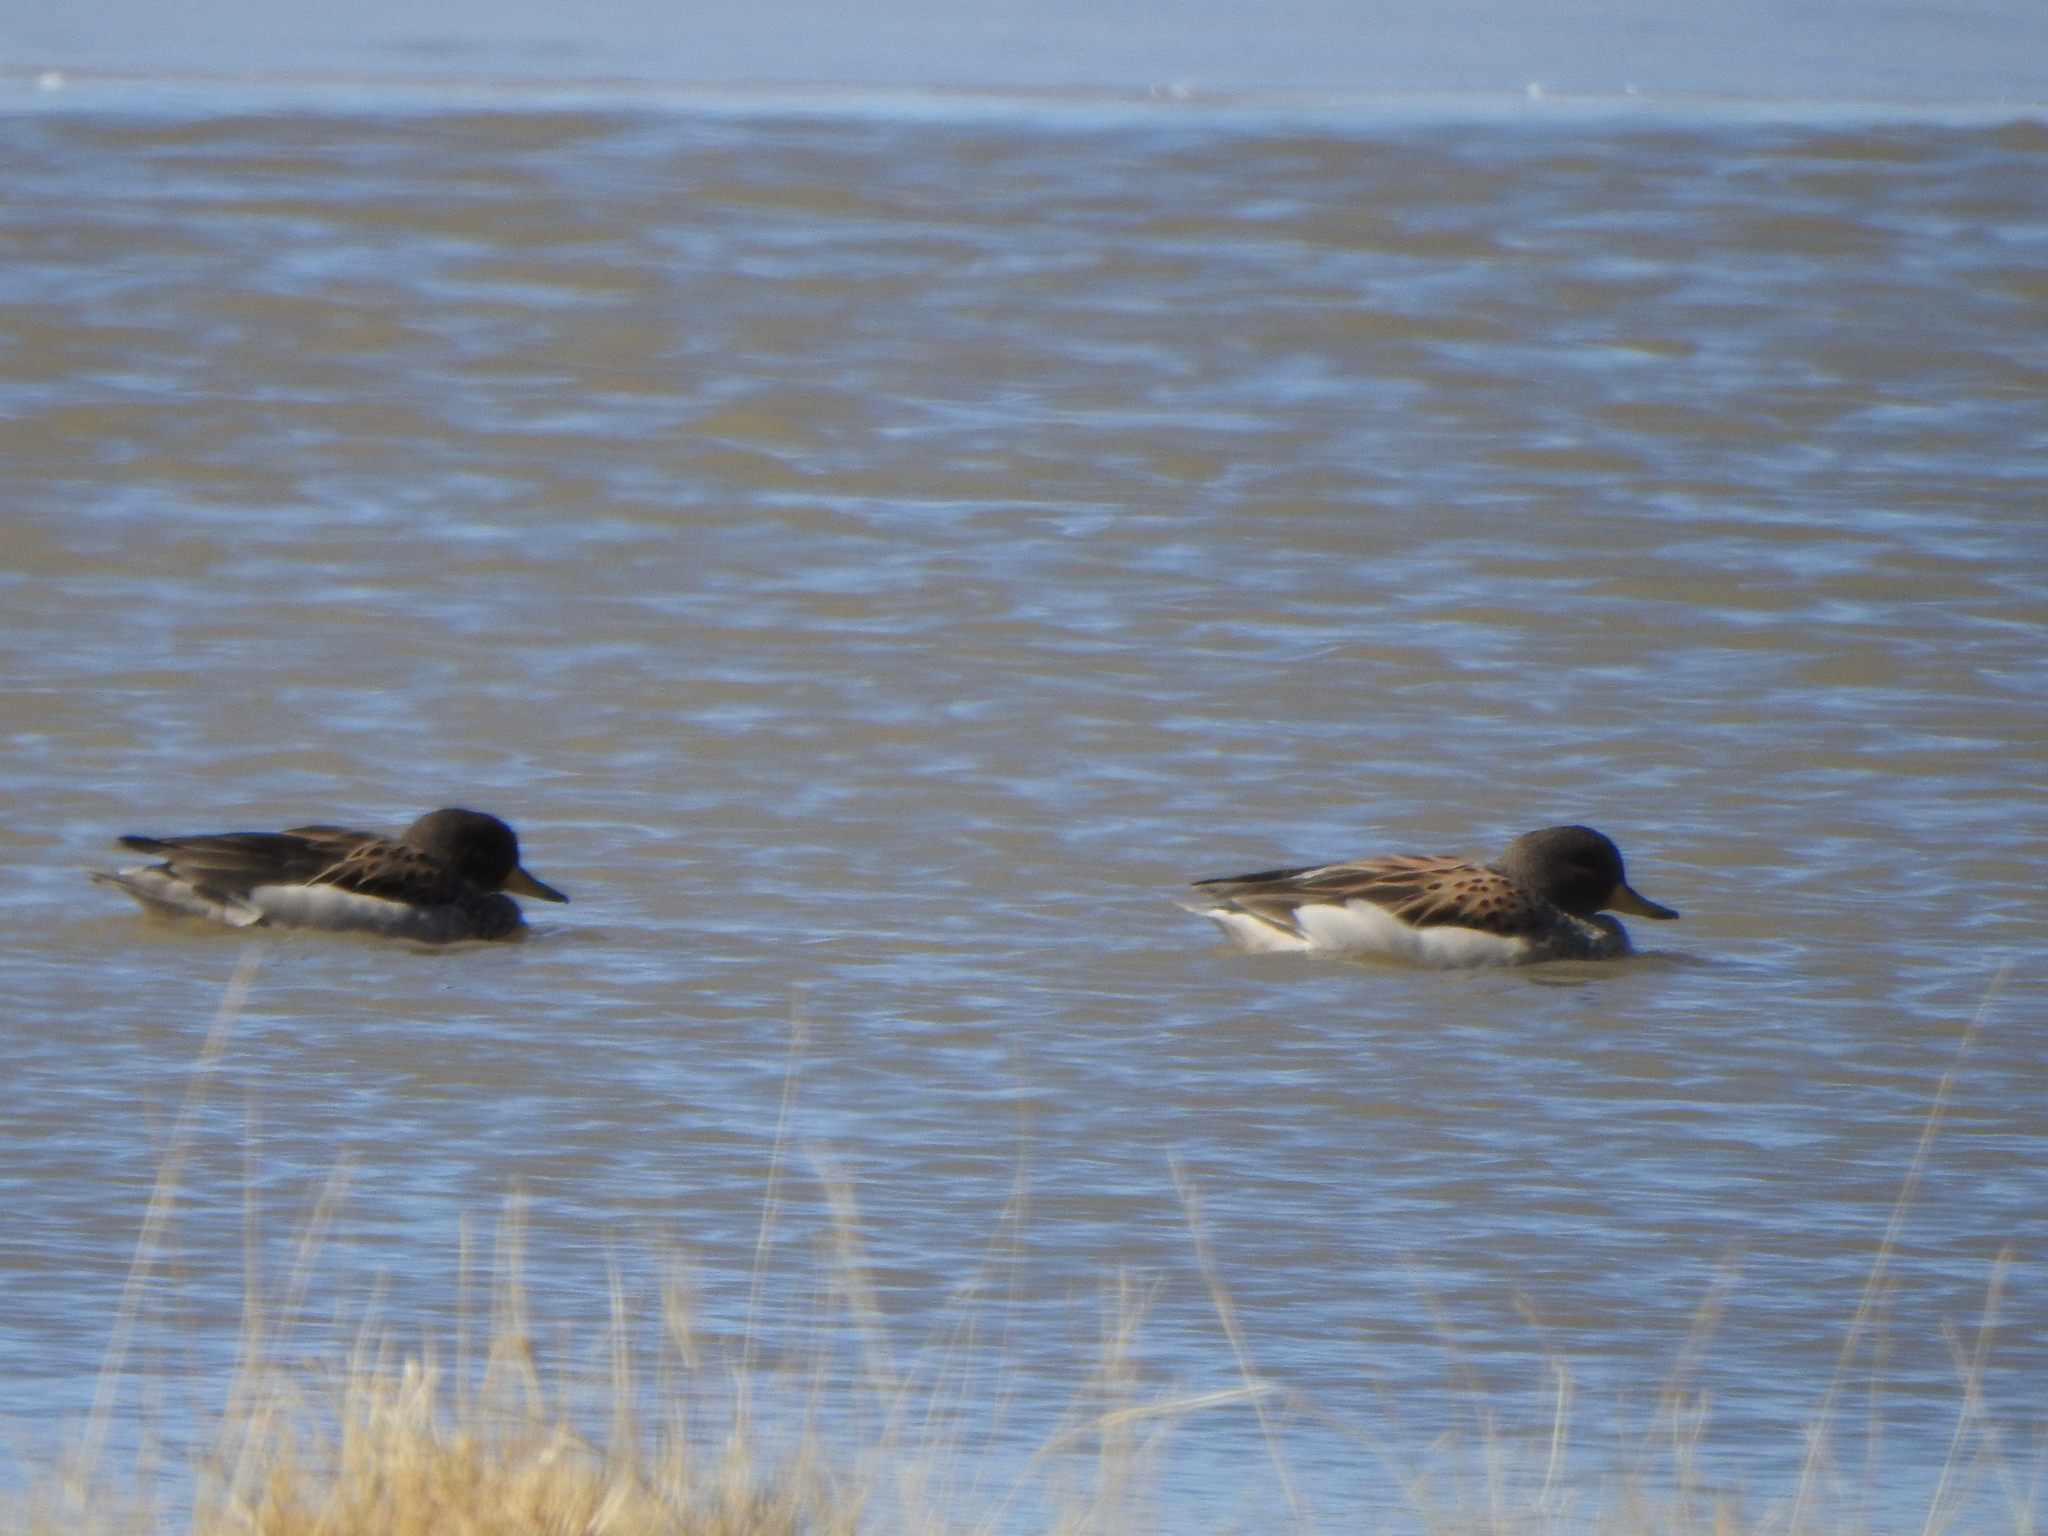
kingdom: Animalia
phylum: Chordata
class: Aves
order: Anseriformes
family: Anatidae
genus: Anas
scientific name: Anas flavirostris
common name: Yellow-billed teal
